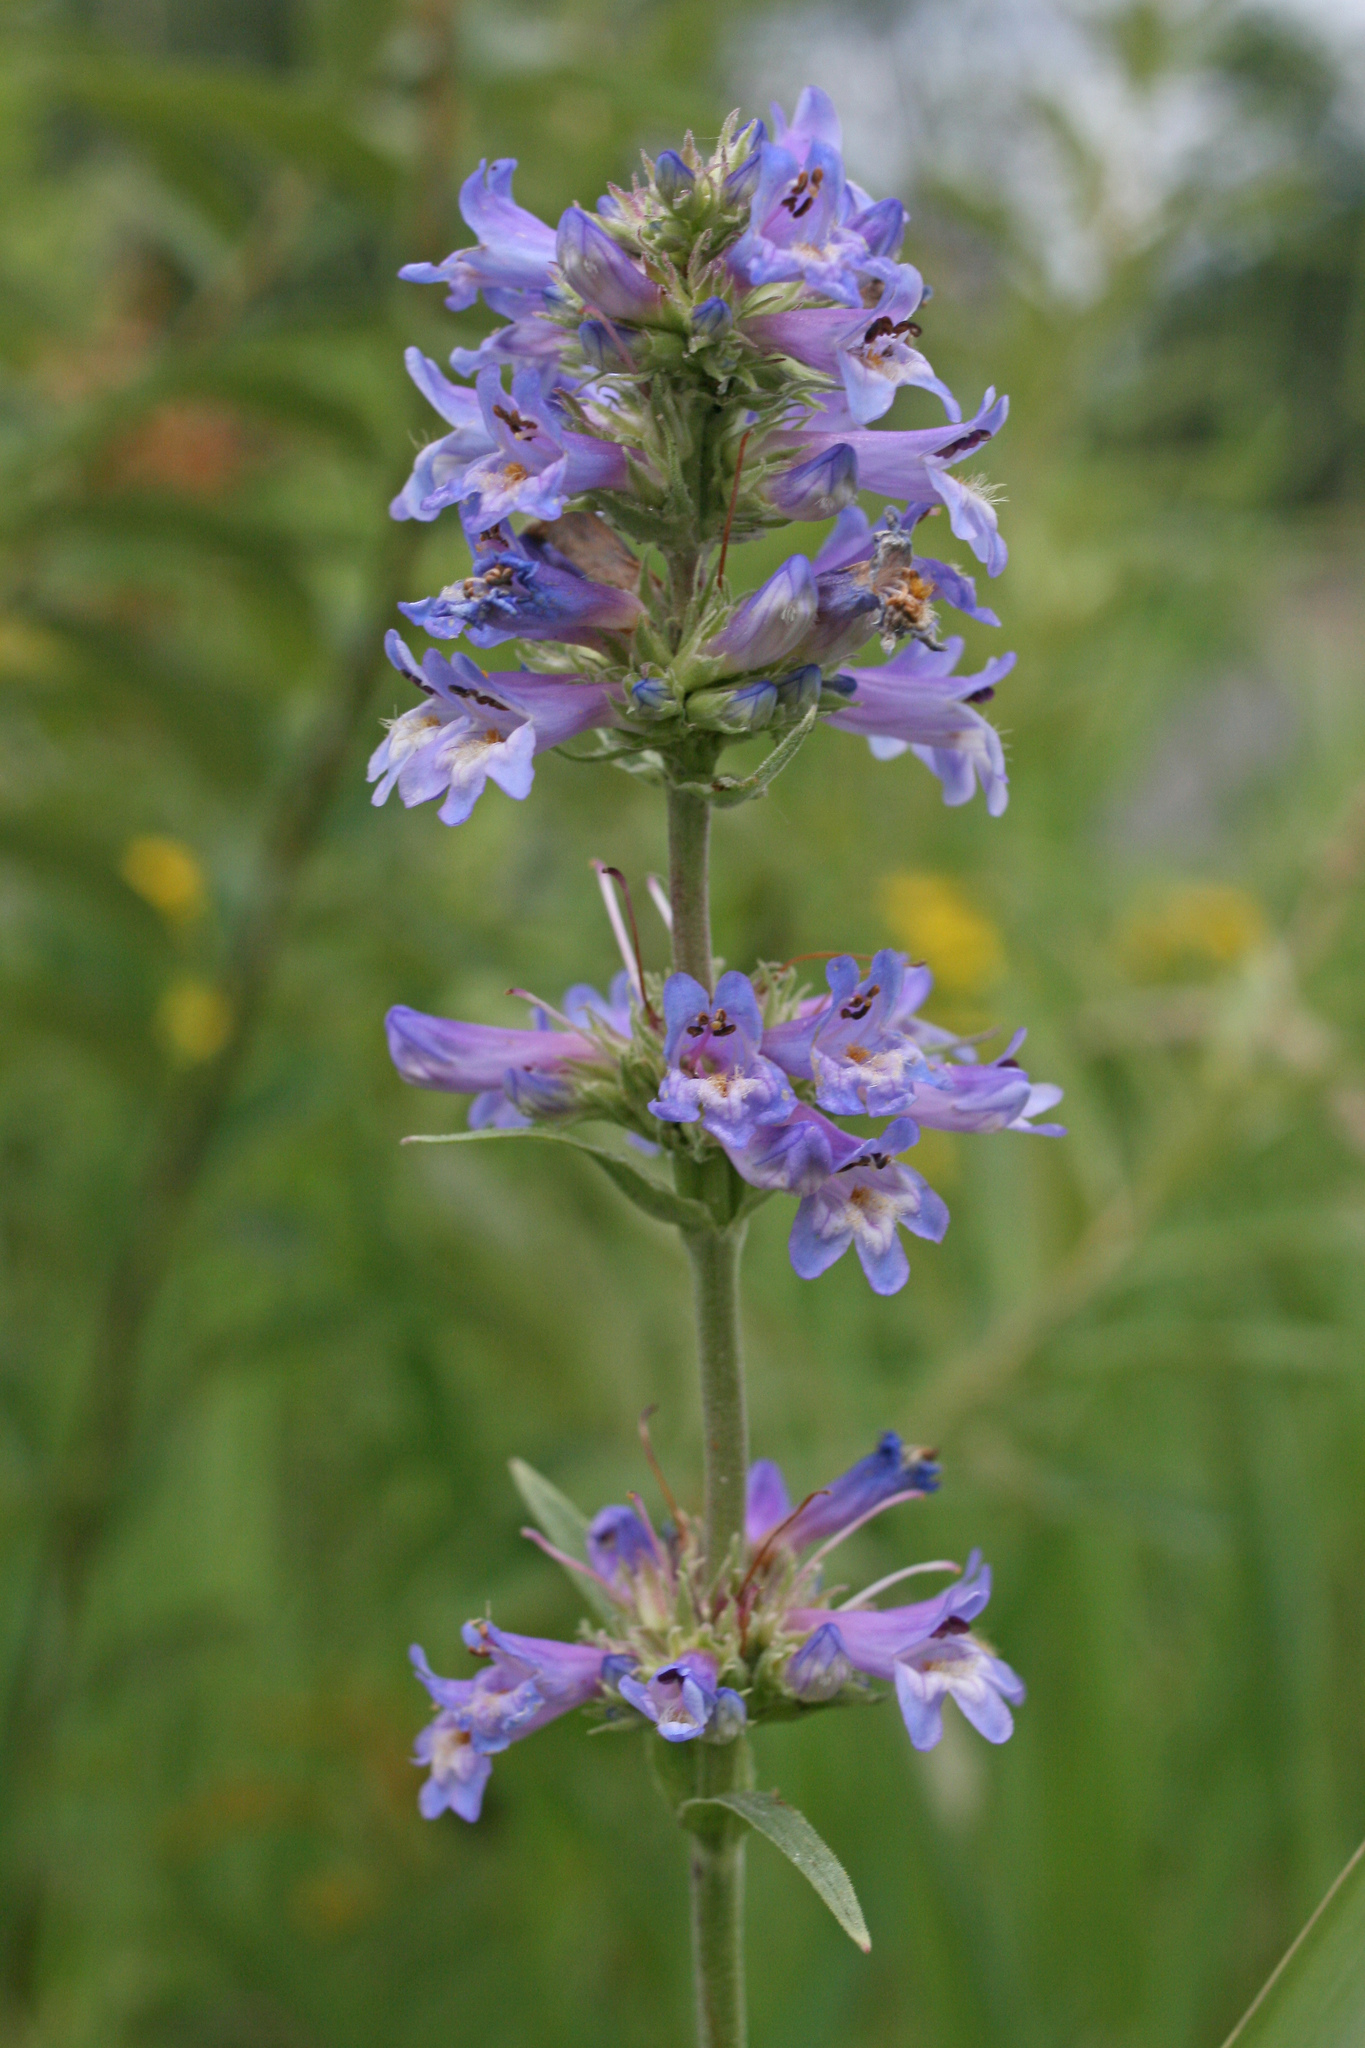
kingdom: Plantae
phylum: Tracheophyta
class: Magnoliopsida
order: Lamiales
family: Plantaginaceae
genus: Penstemon
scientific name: Penstemon hesperius
